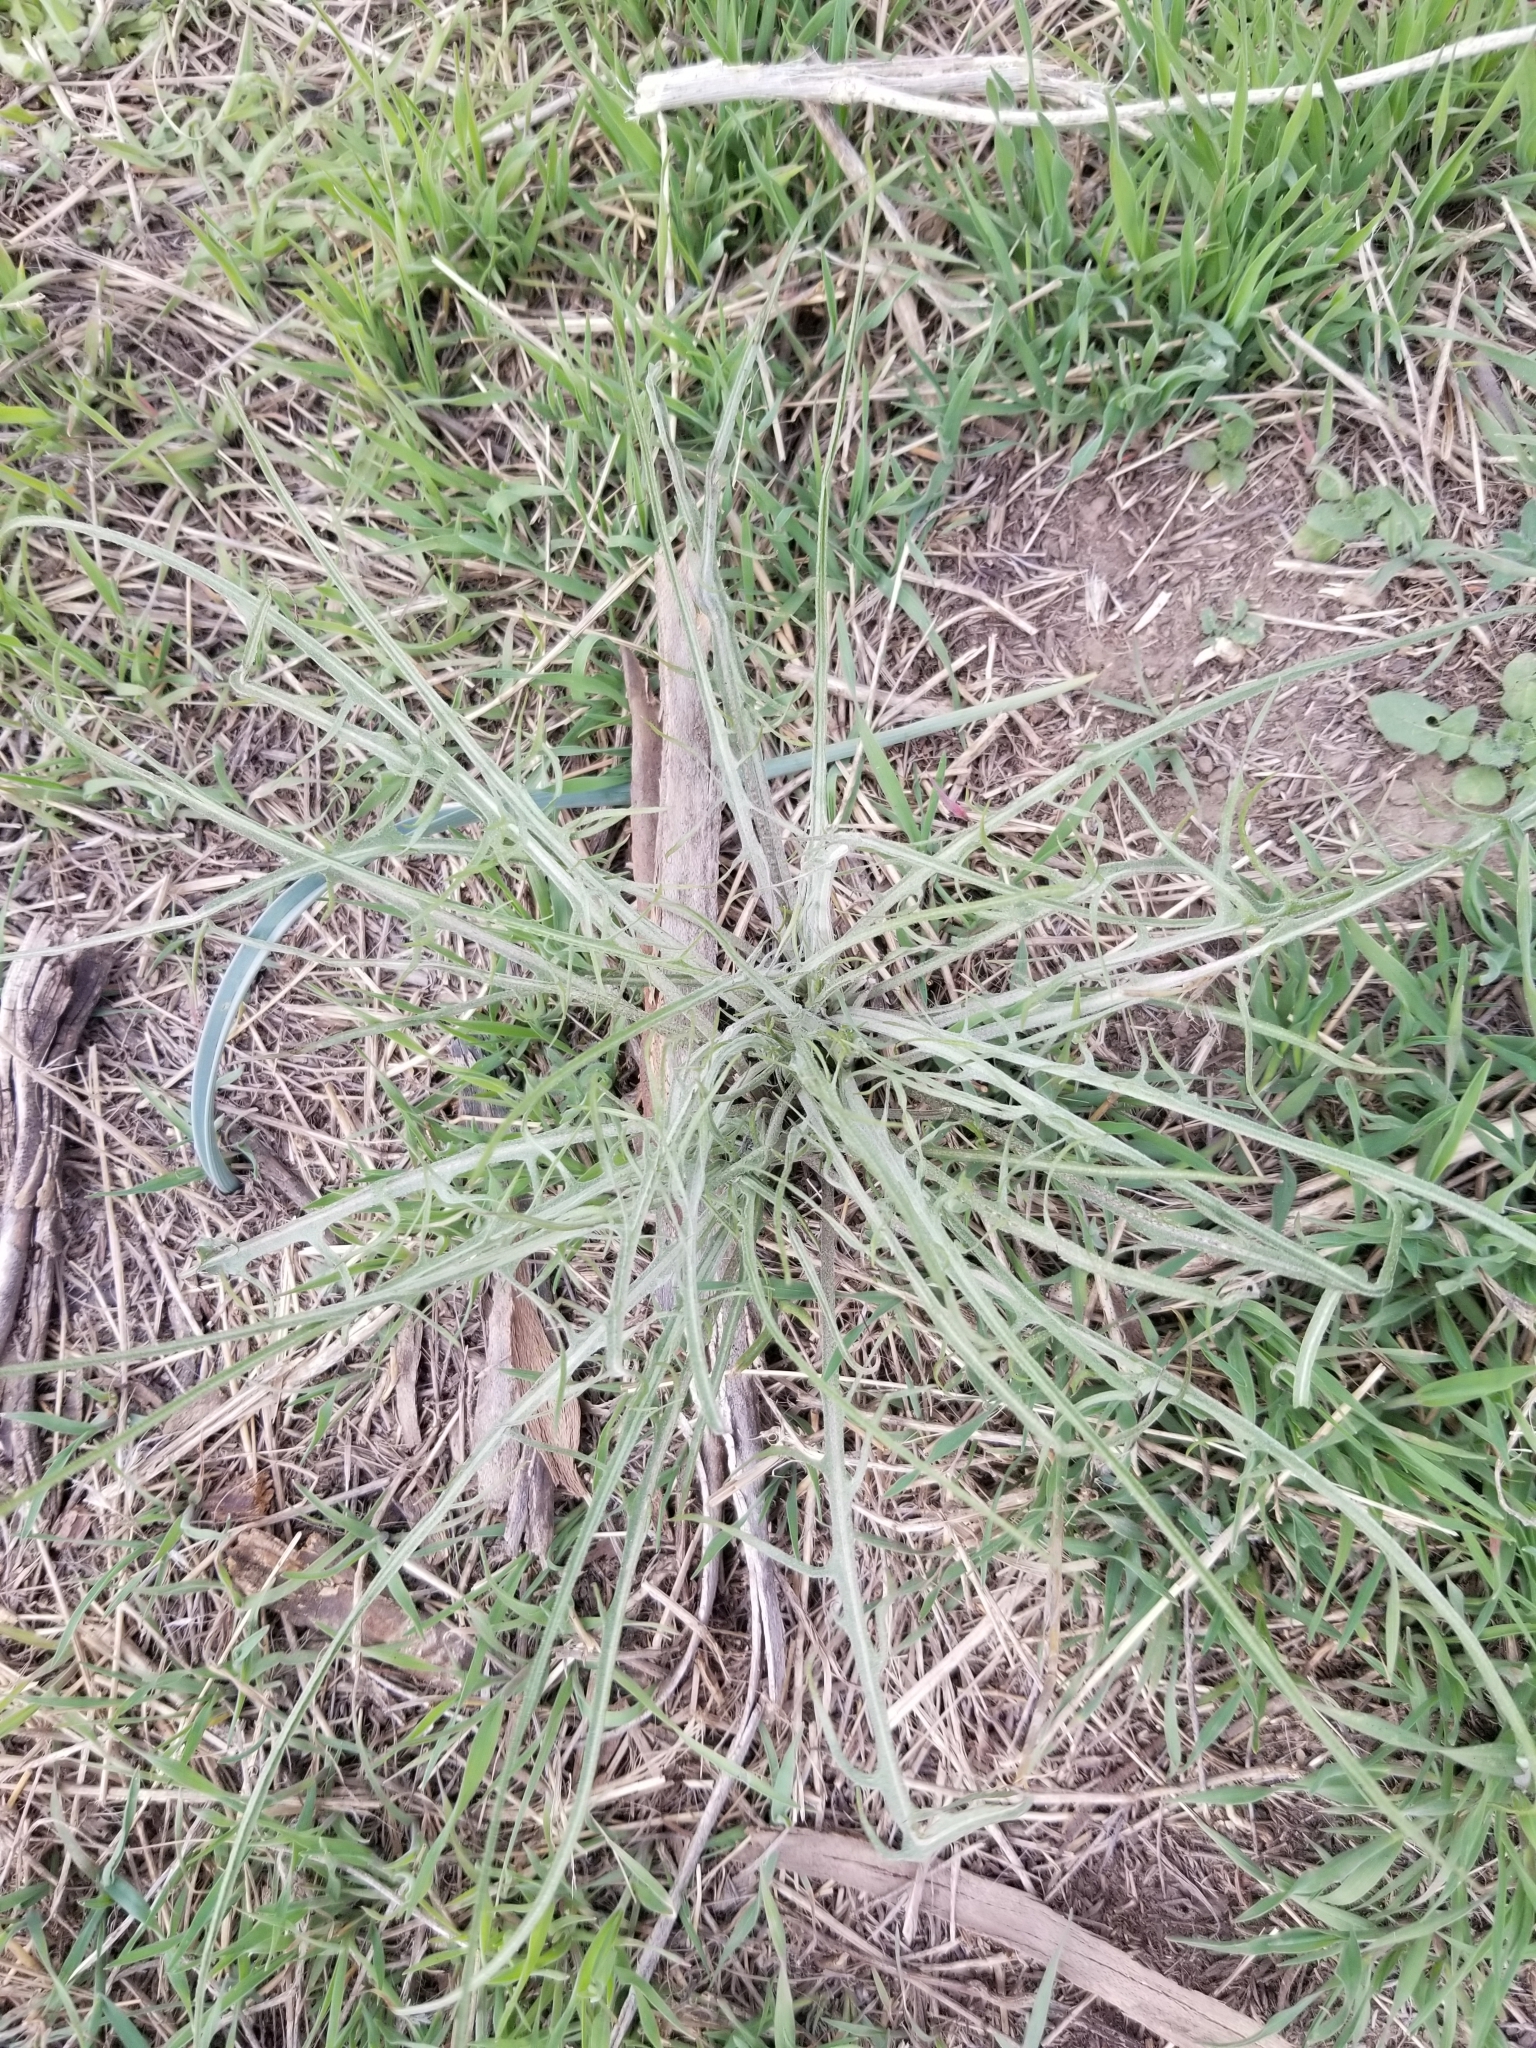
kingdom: Plantae
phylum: Tracheophyta
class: Magnoliopsida
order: Asterales
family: Asteraceae
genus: Crepis
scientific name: Crepis atribarba
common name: Dark hawk's-beard
